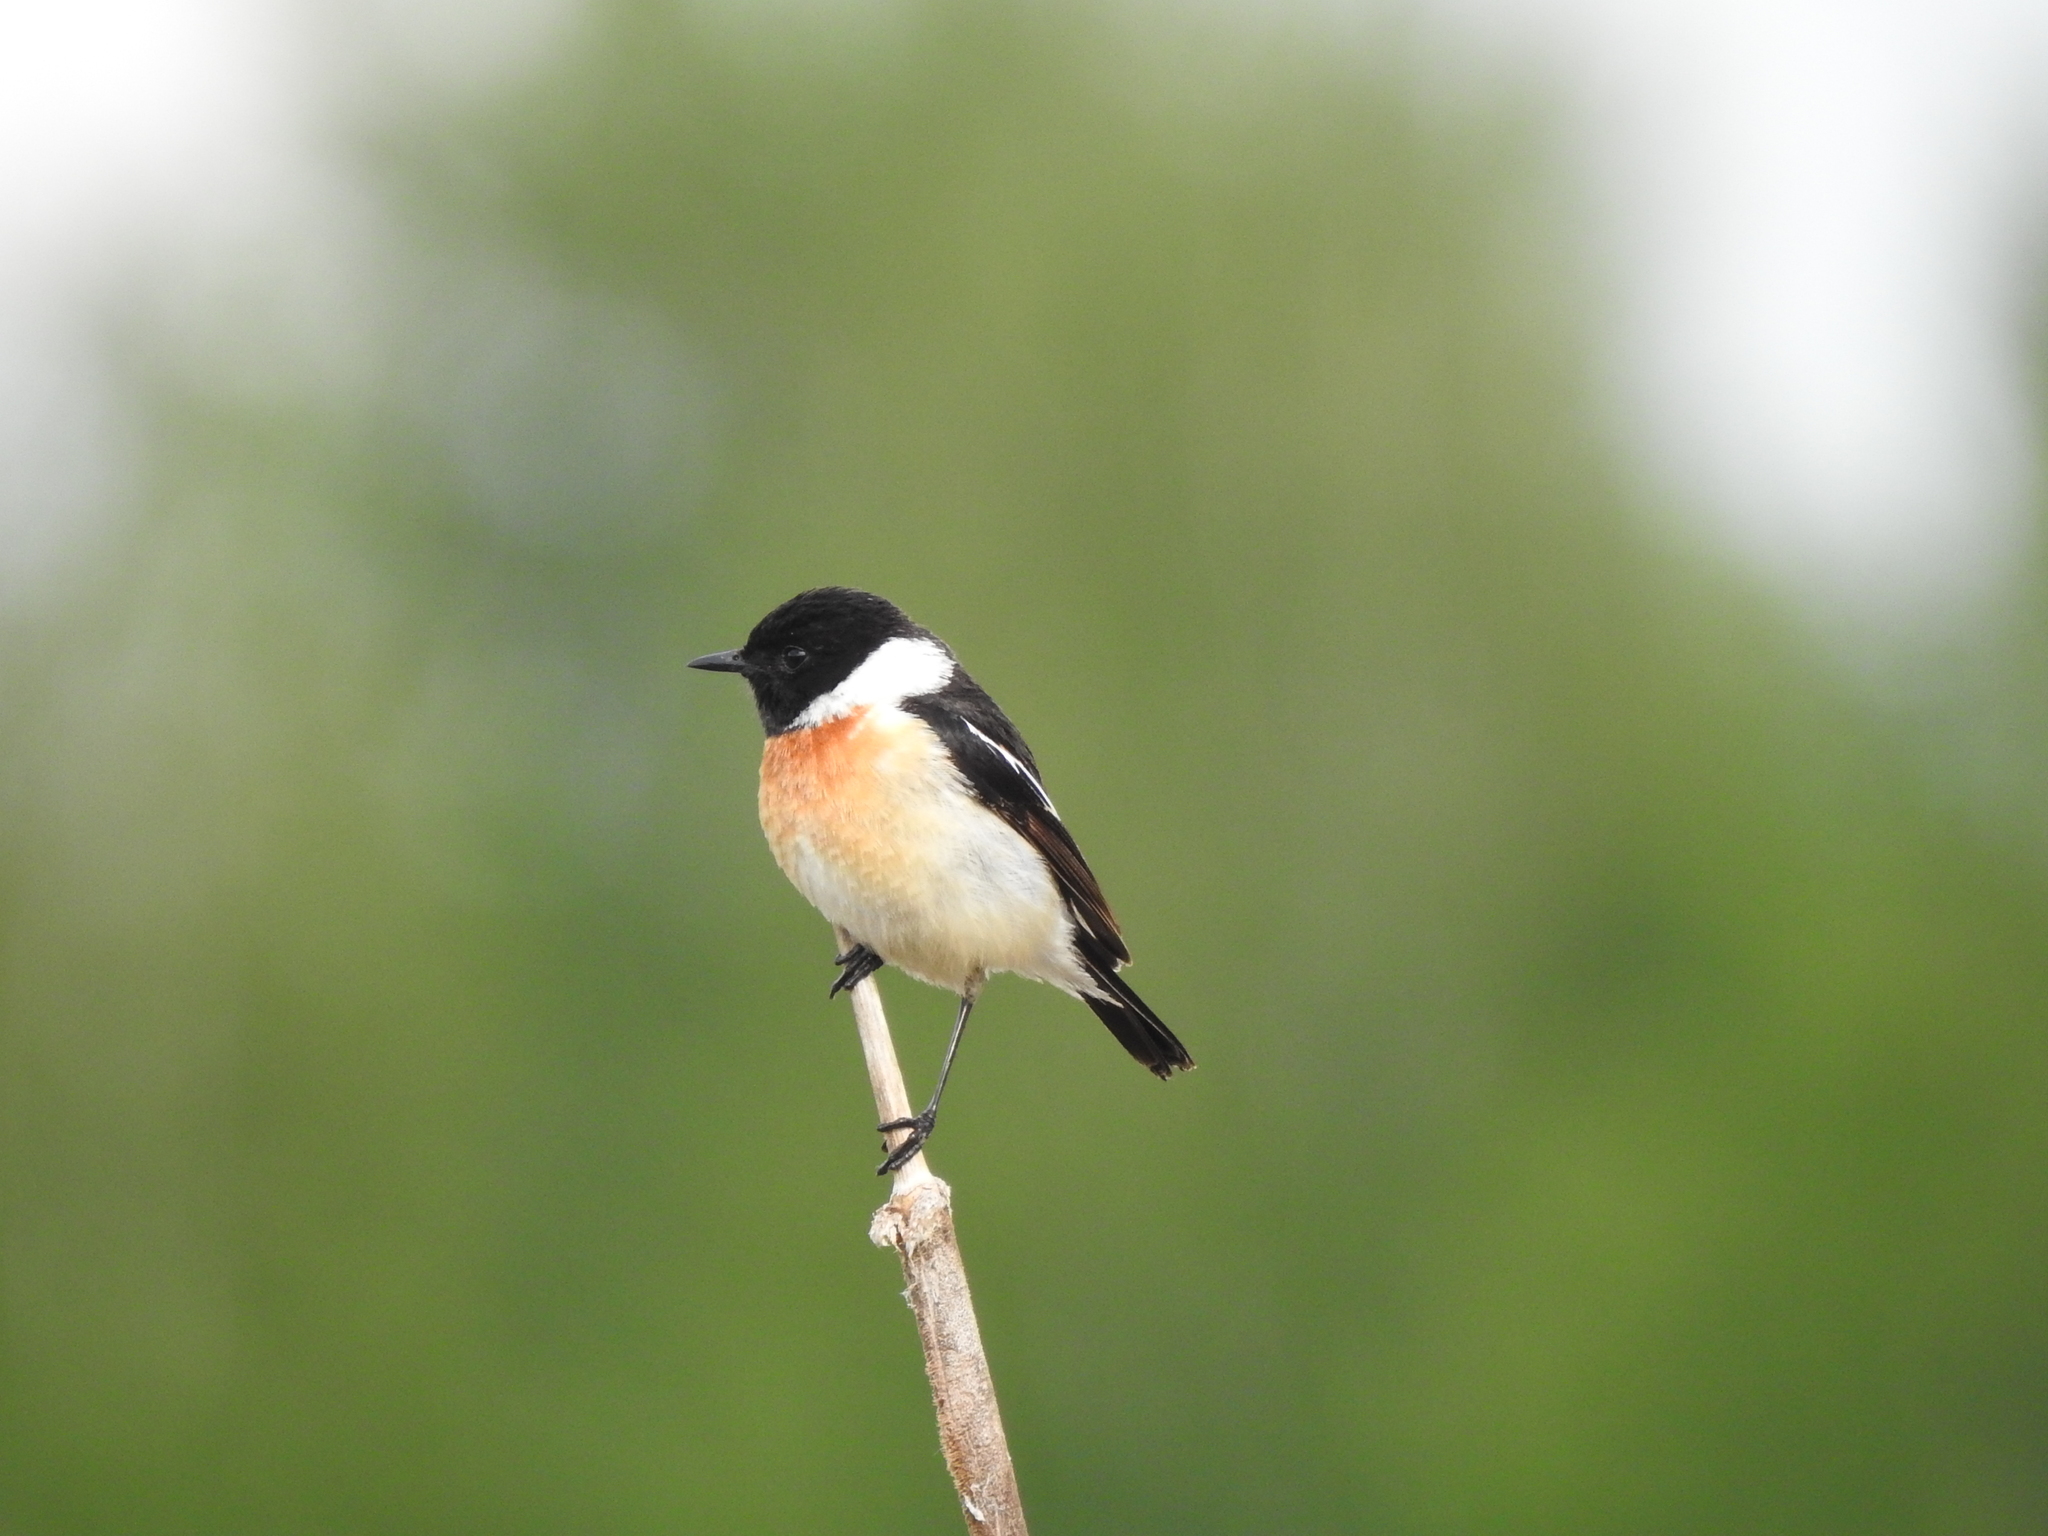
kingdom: Animalia
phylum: Chordata
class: Aves
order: Passeriformes
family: Muscicapidae
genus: Saxicola
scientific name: Saxicola maurus
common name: Siberian stonechat
